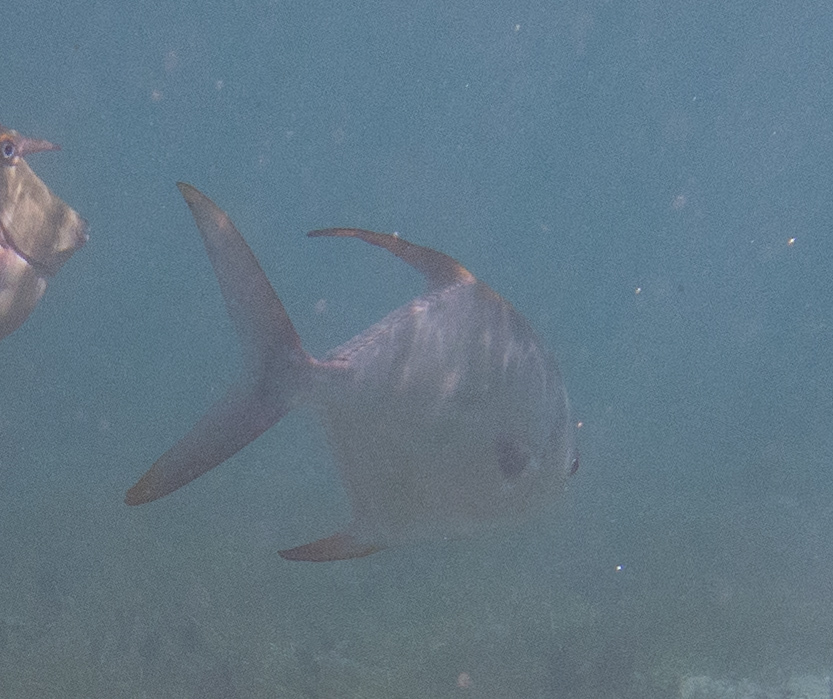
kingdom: Animalia
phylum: Chordata
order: Perciformes
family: Carangidae
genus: Trachinotus
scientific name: Trachinotus blochii
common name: Snubnose pompano
